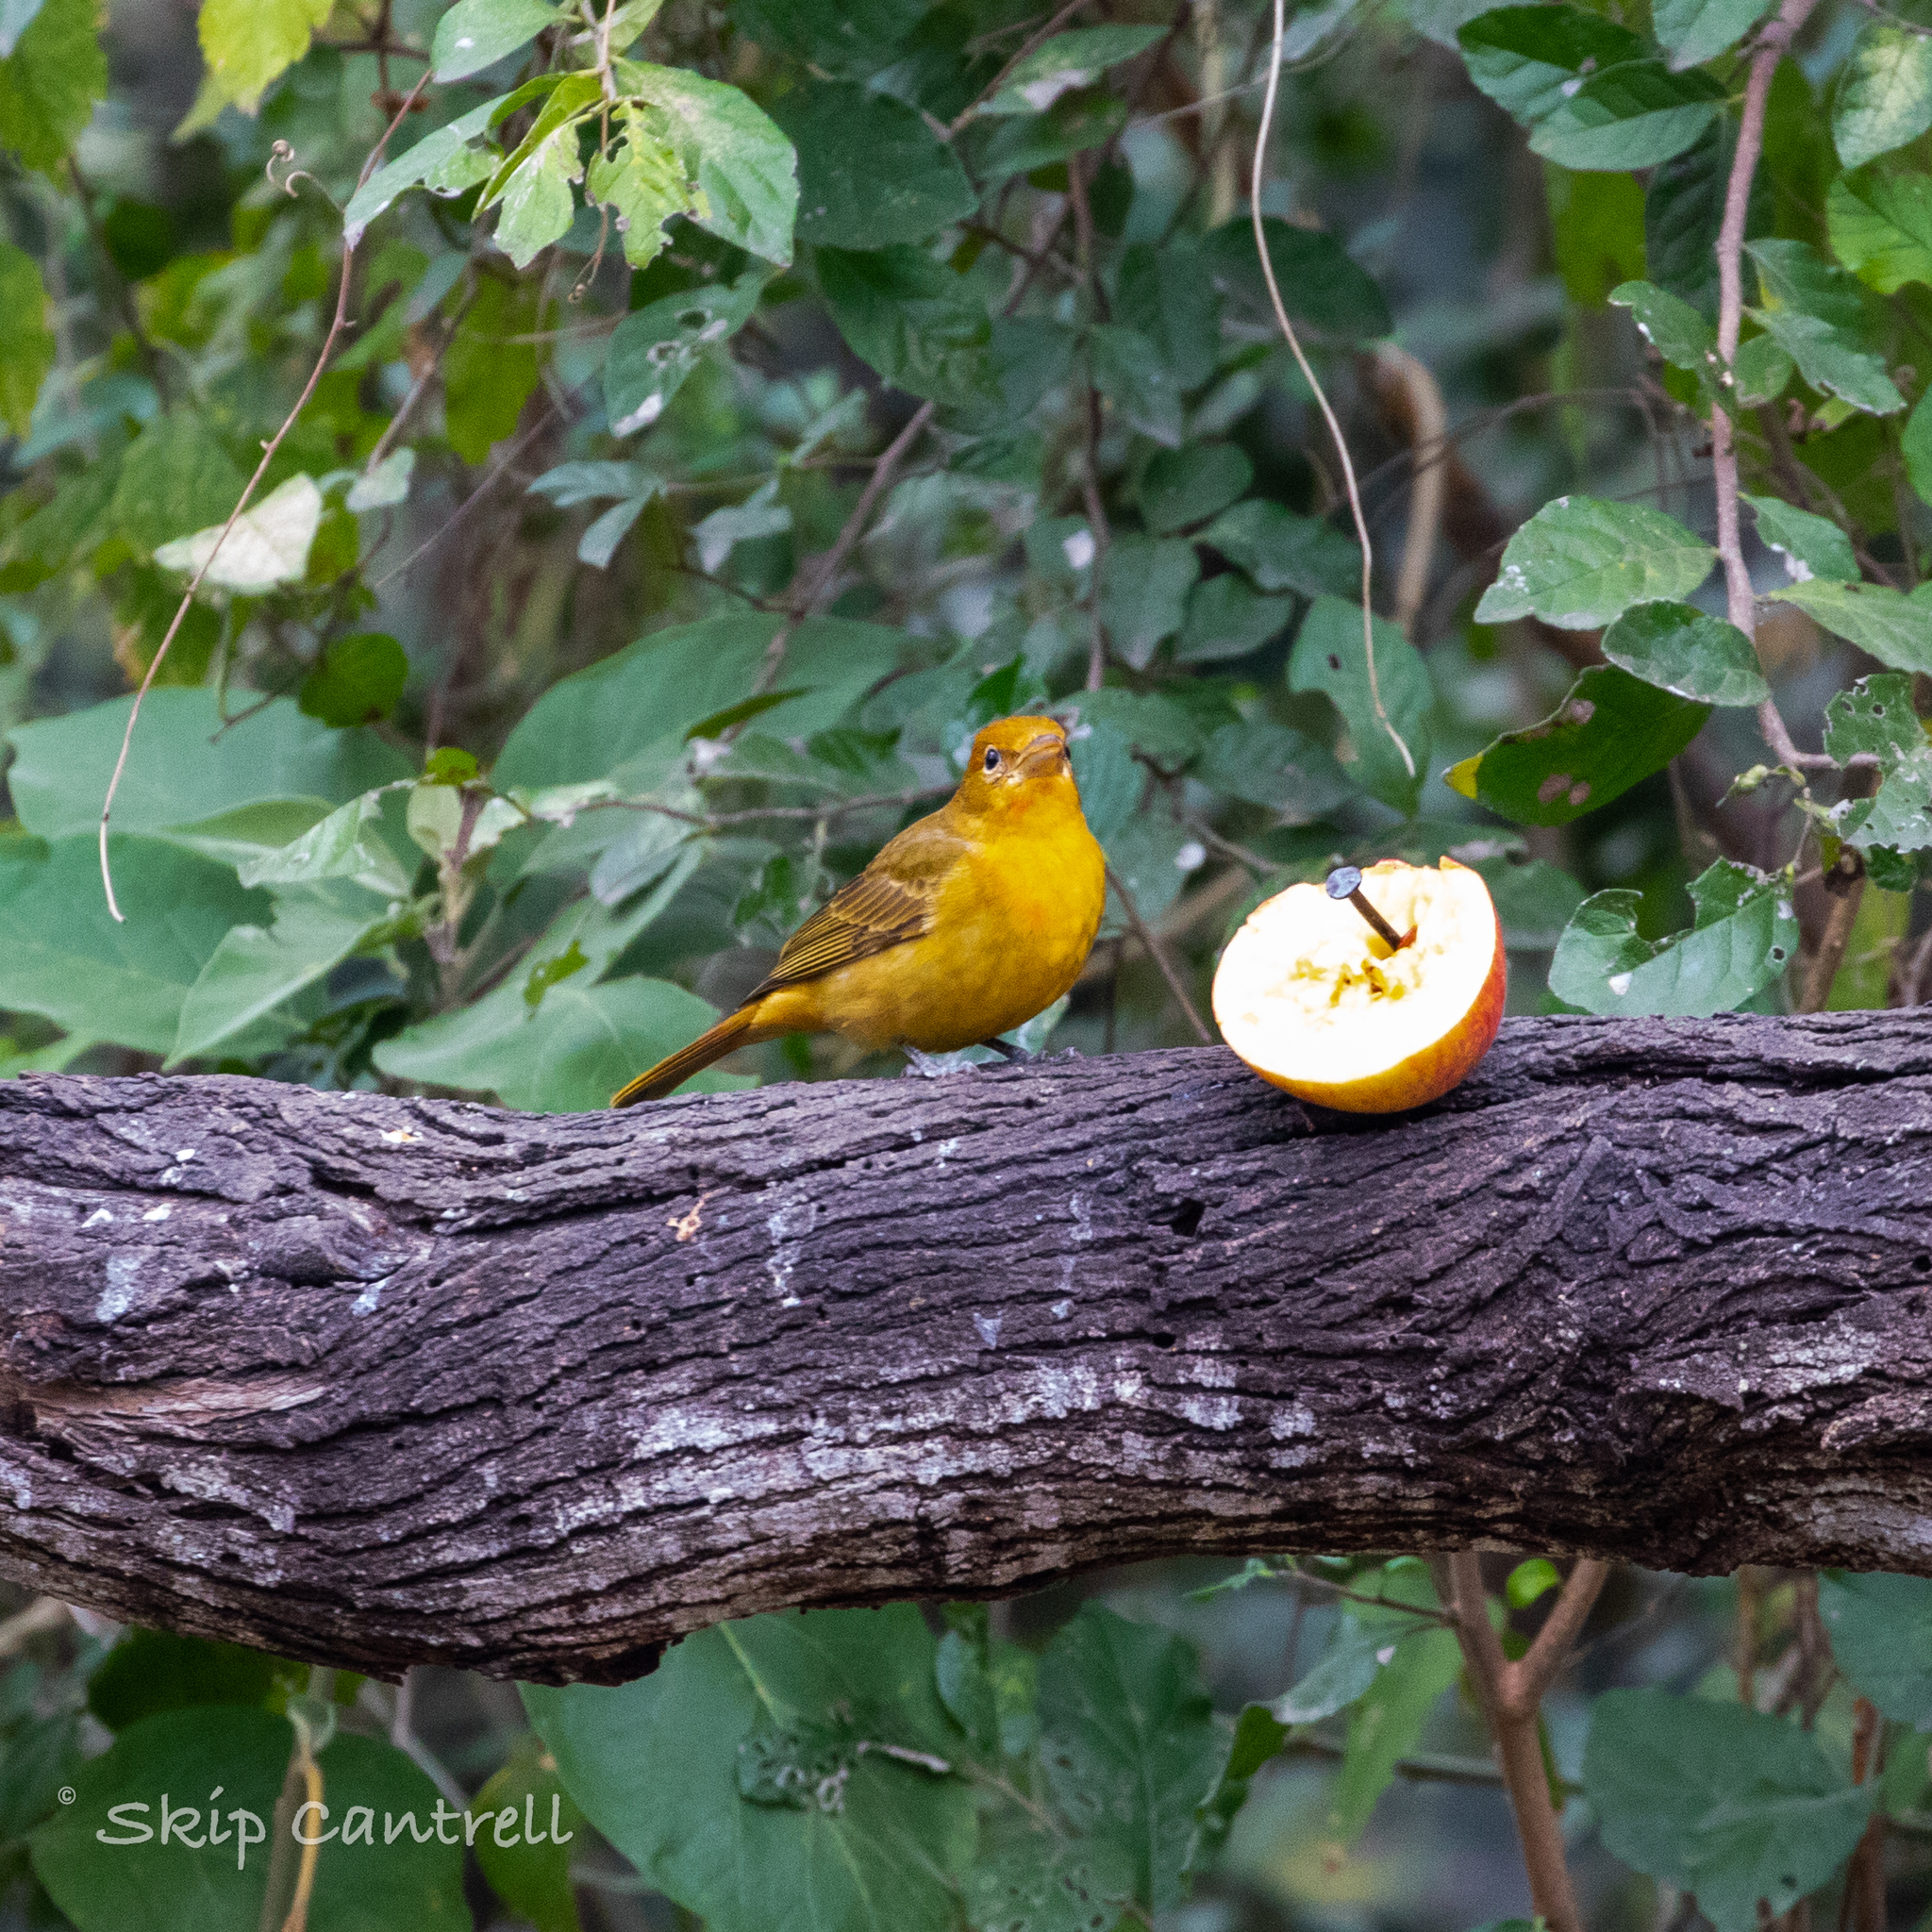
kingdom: Animalia
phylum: Chordata
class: Aves
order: Passeriformes
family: Cardinalidae
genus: Piranga
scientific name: Piranga rubra
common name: Summer tanager
